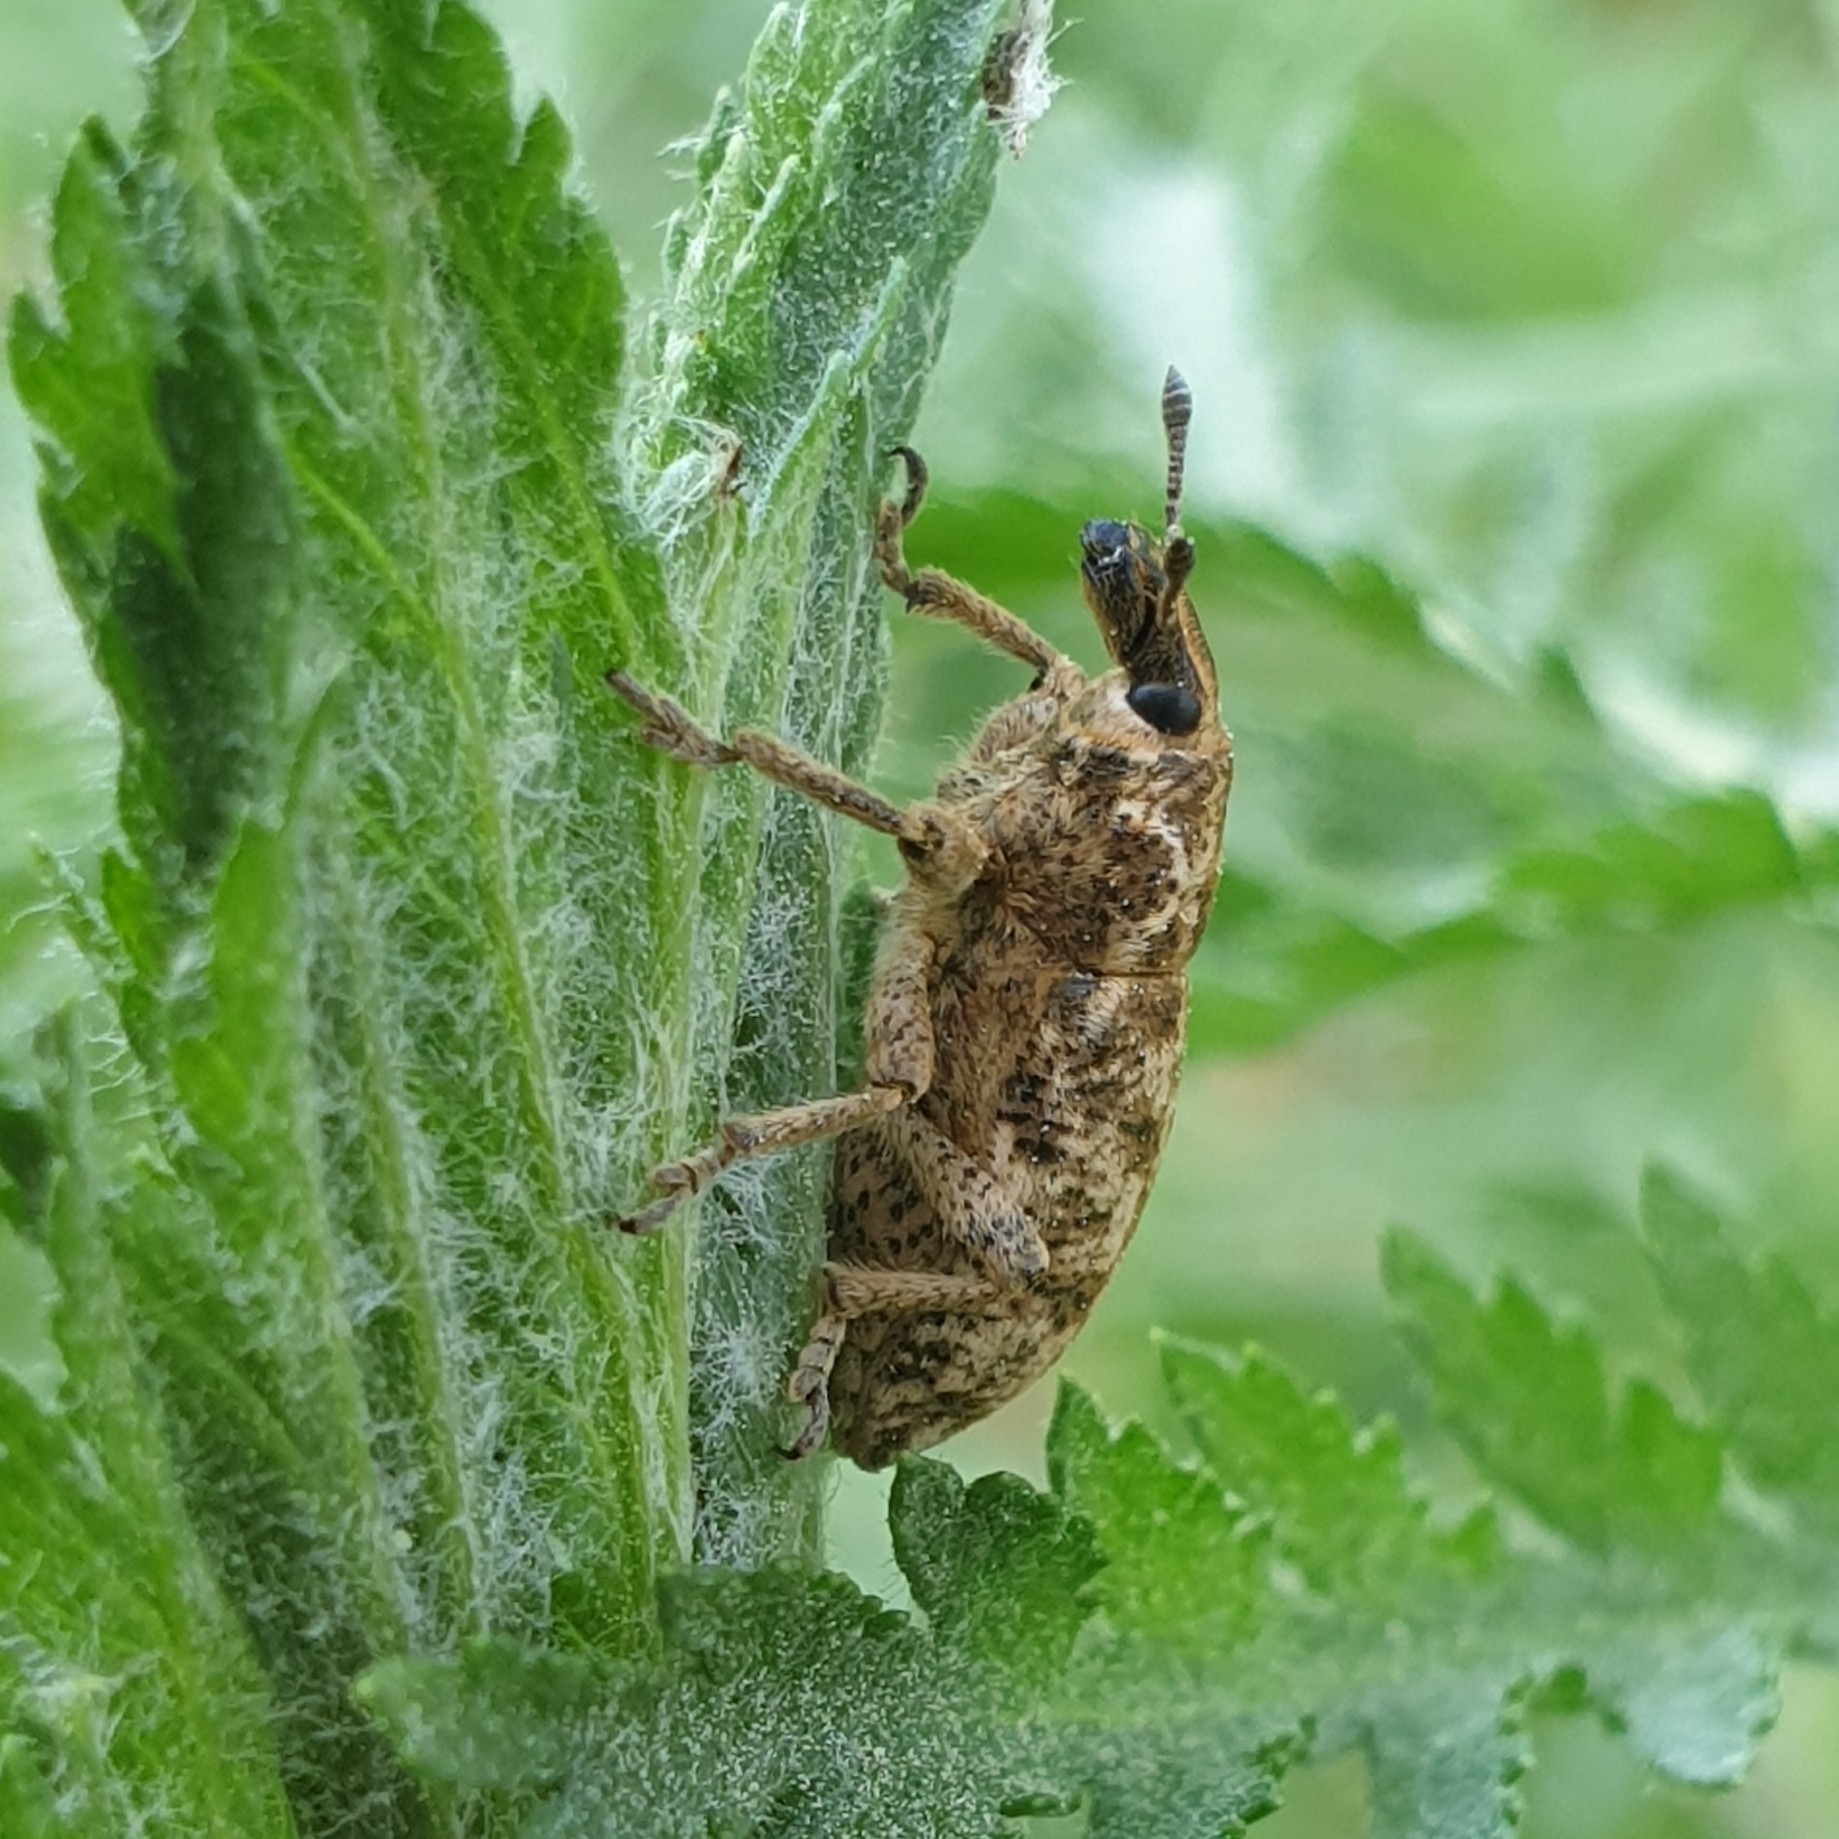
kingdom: Animalia
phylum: Arthropoda
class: Insecta
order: Coleoptera
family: Curculionidae
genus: Cyphocleonus
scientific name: Cyphocleonus dealbatus
